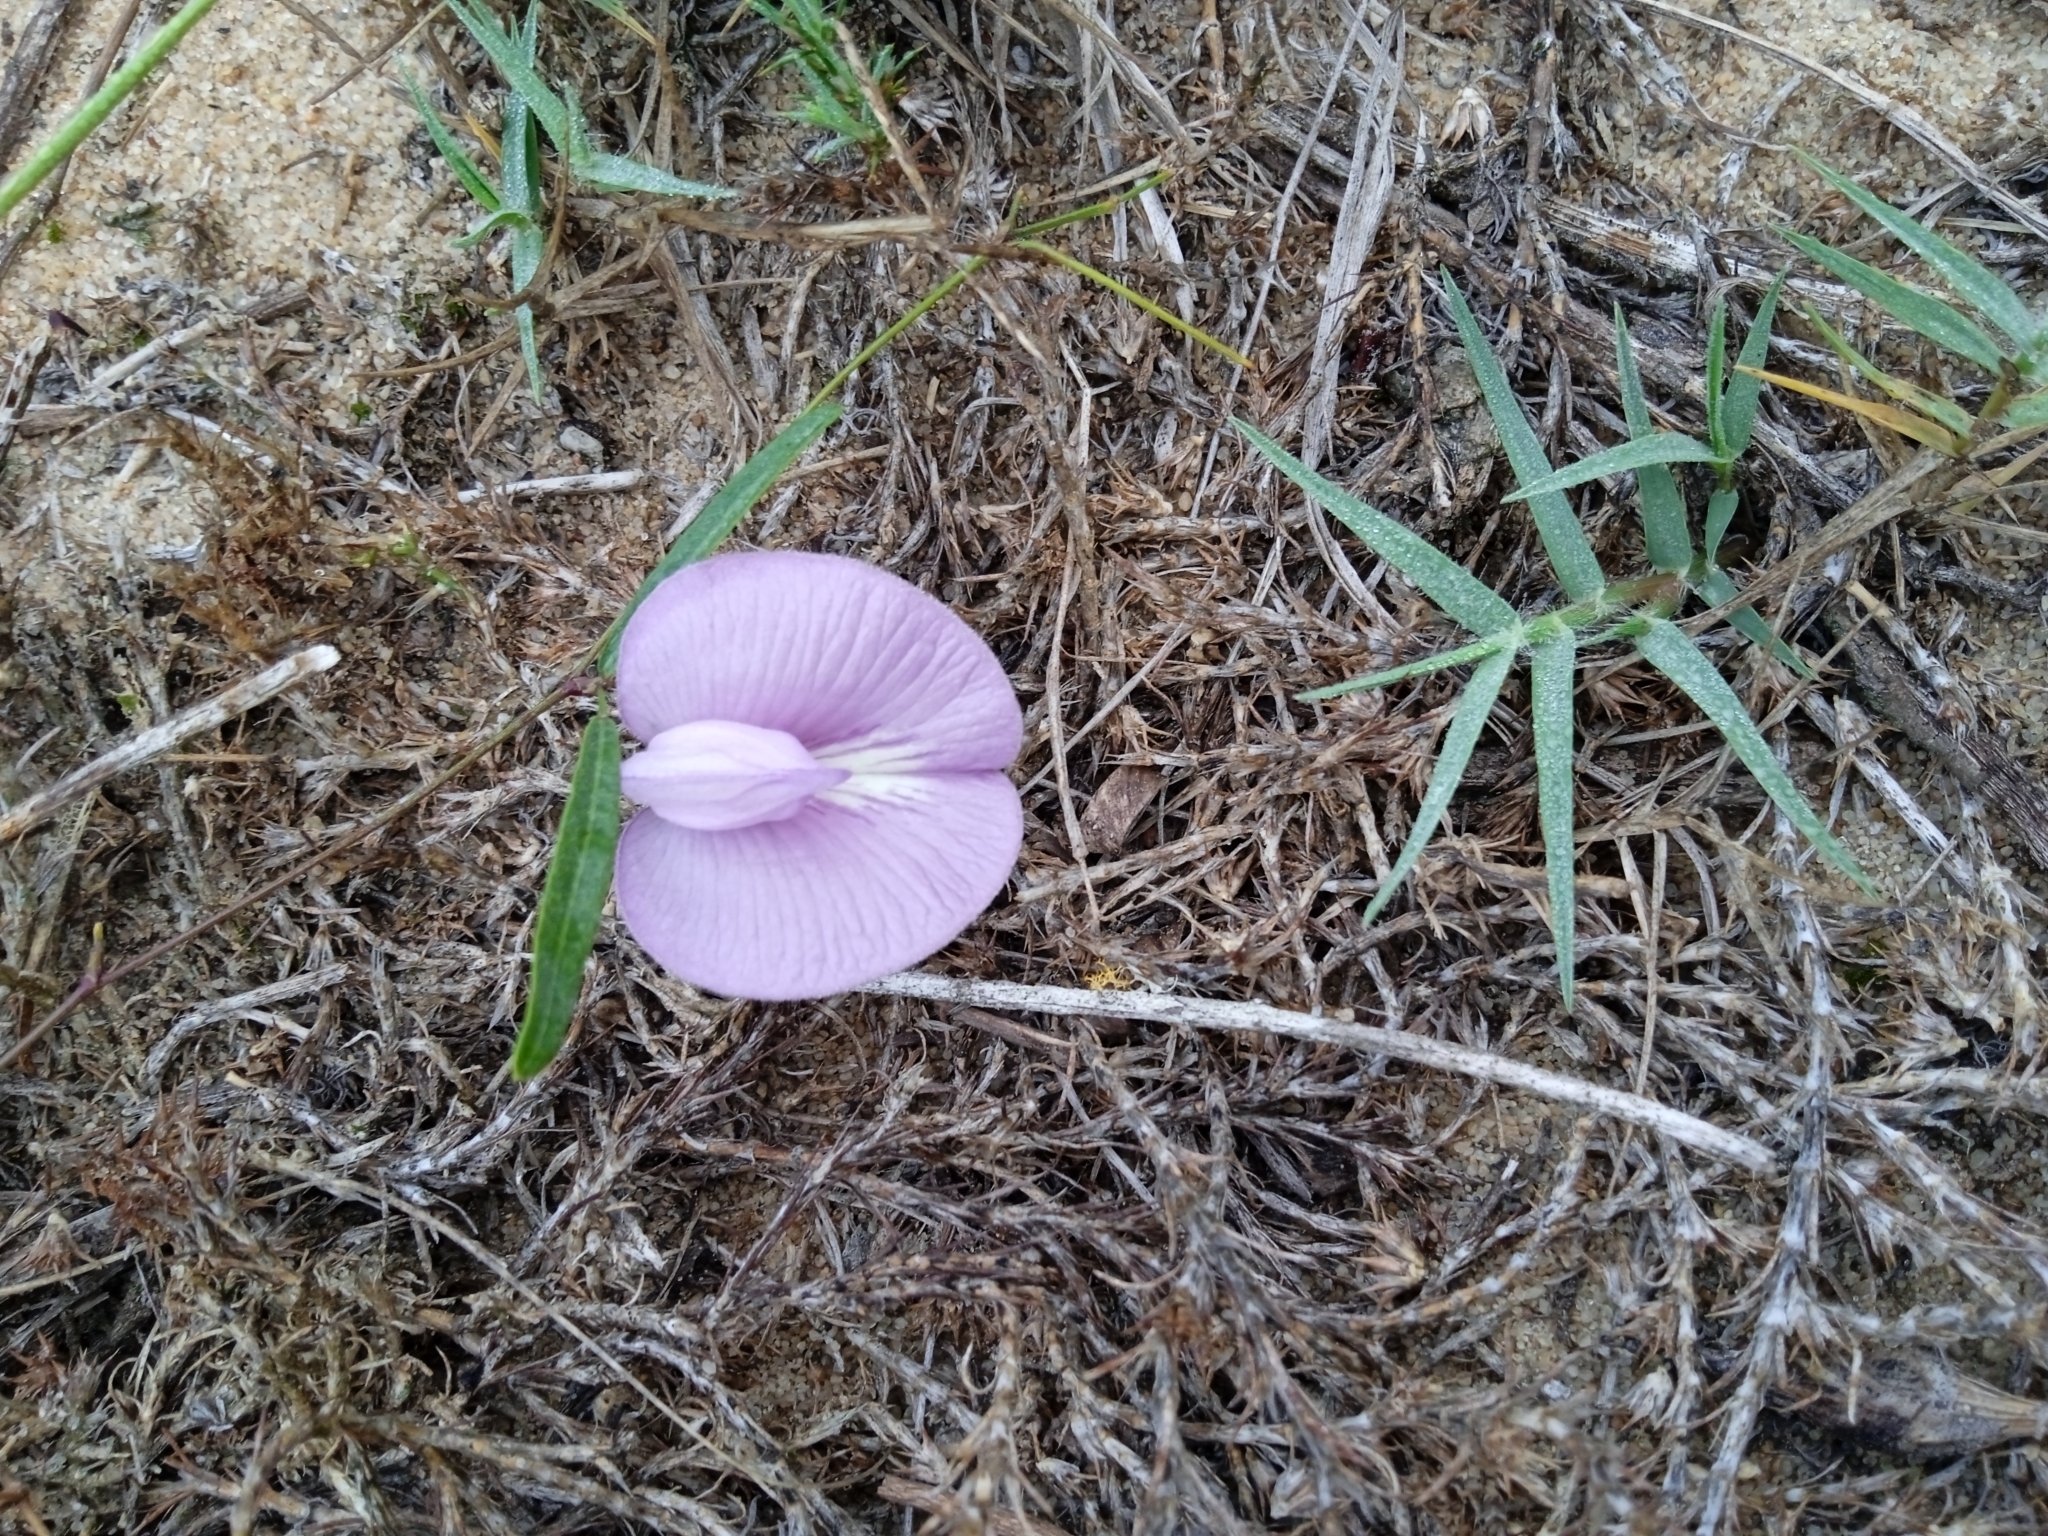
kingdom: Plantae
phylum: Tracheophyta
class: Magnoliopsida
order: Fabales
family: Fabaceae
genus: Centrosema
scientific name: Centrosema virginianum
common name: Butterfly-pea
